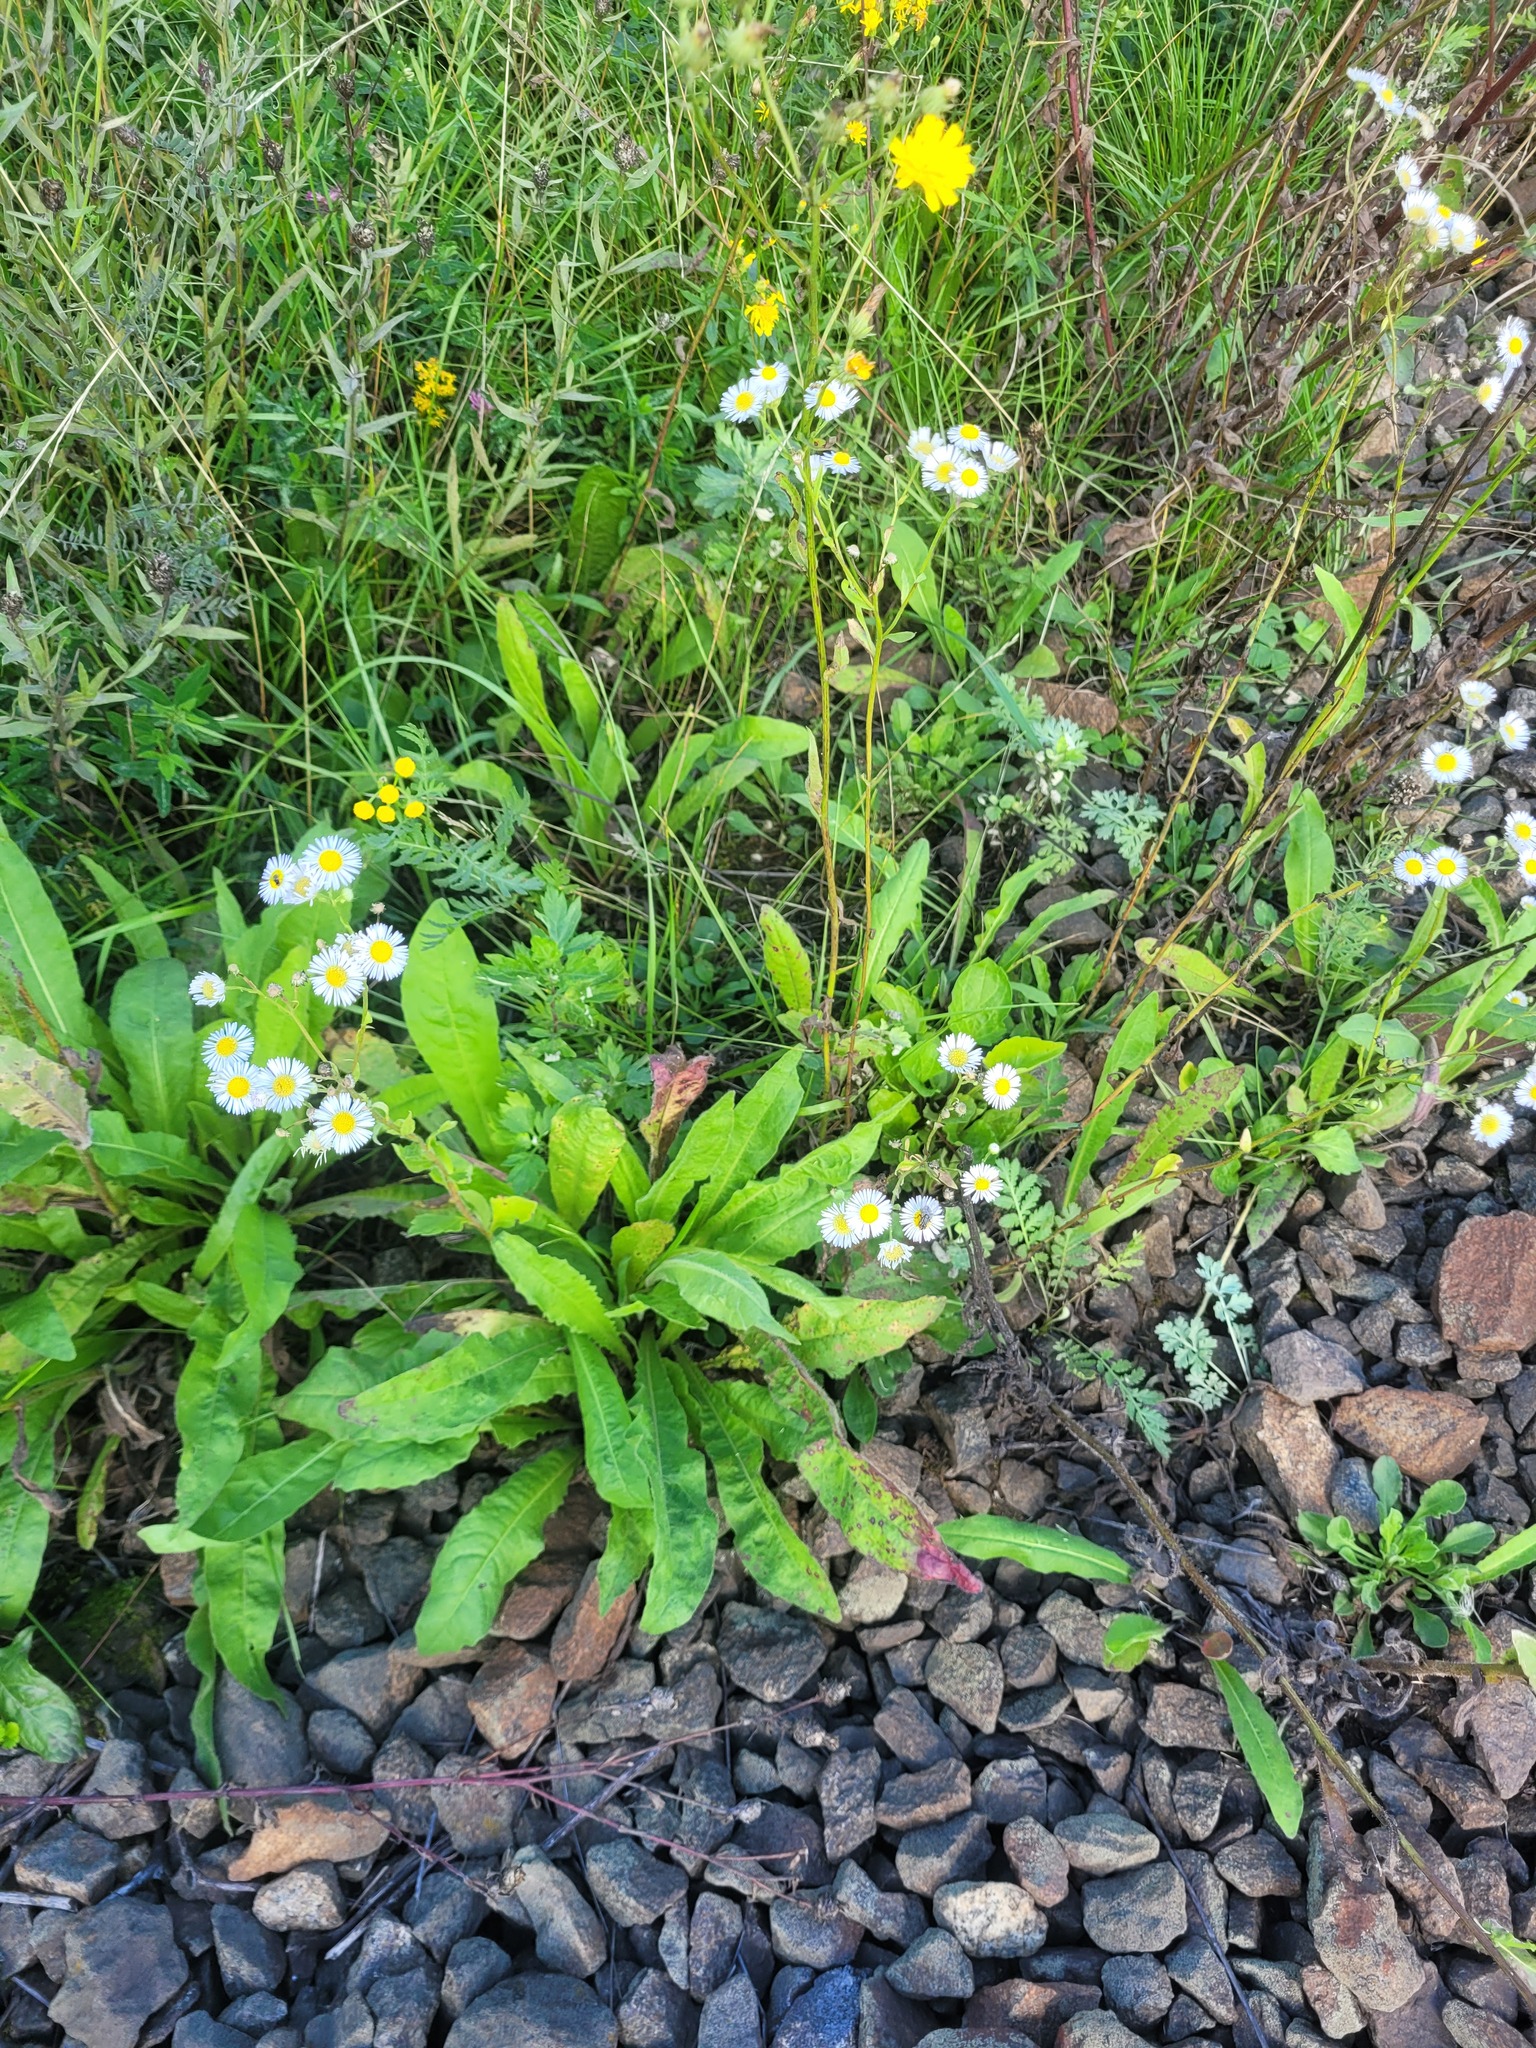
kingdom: Plantae
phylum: Tracheophyta
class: Magnoliopsida
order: Asterales
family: Asteraceae
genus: Erigeron
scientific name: Erigeron annuus
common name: Tall fleabane
